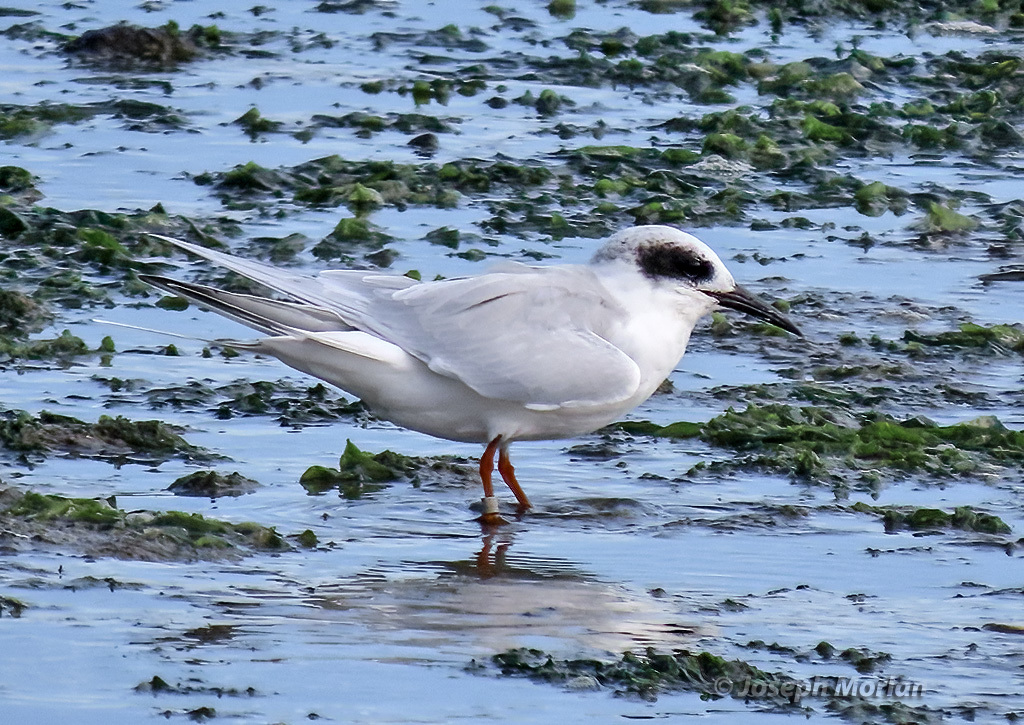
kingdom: Animalia
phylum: Chordata
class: Aves
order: Charadriiformes
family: Laridae
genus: Sterna
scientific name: Sterna forsteri
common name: Forster's tern
